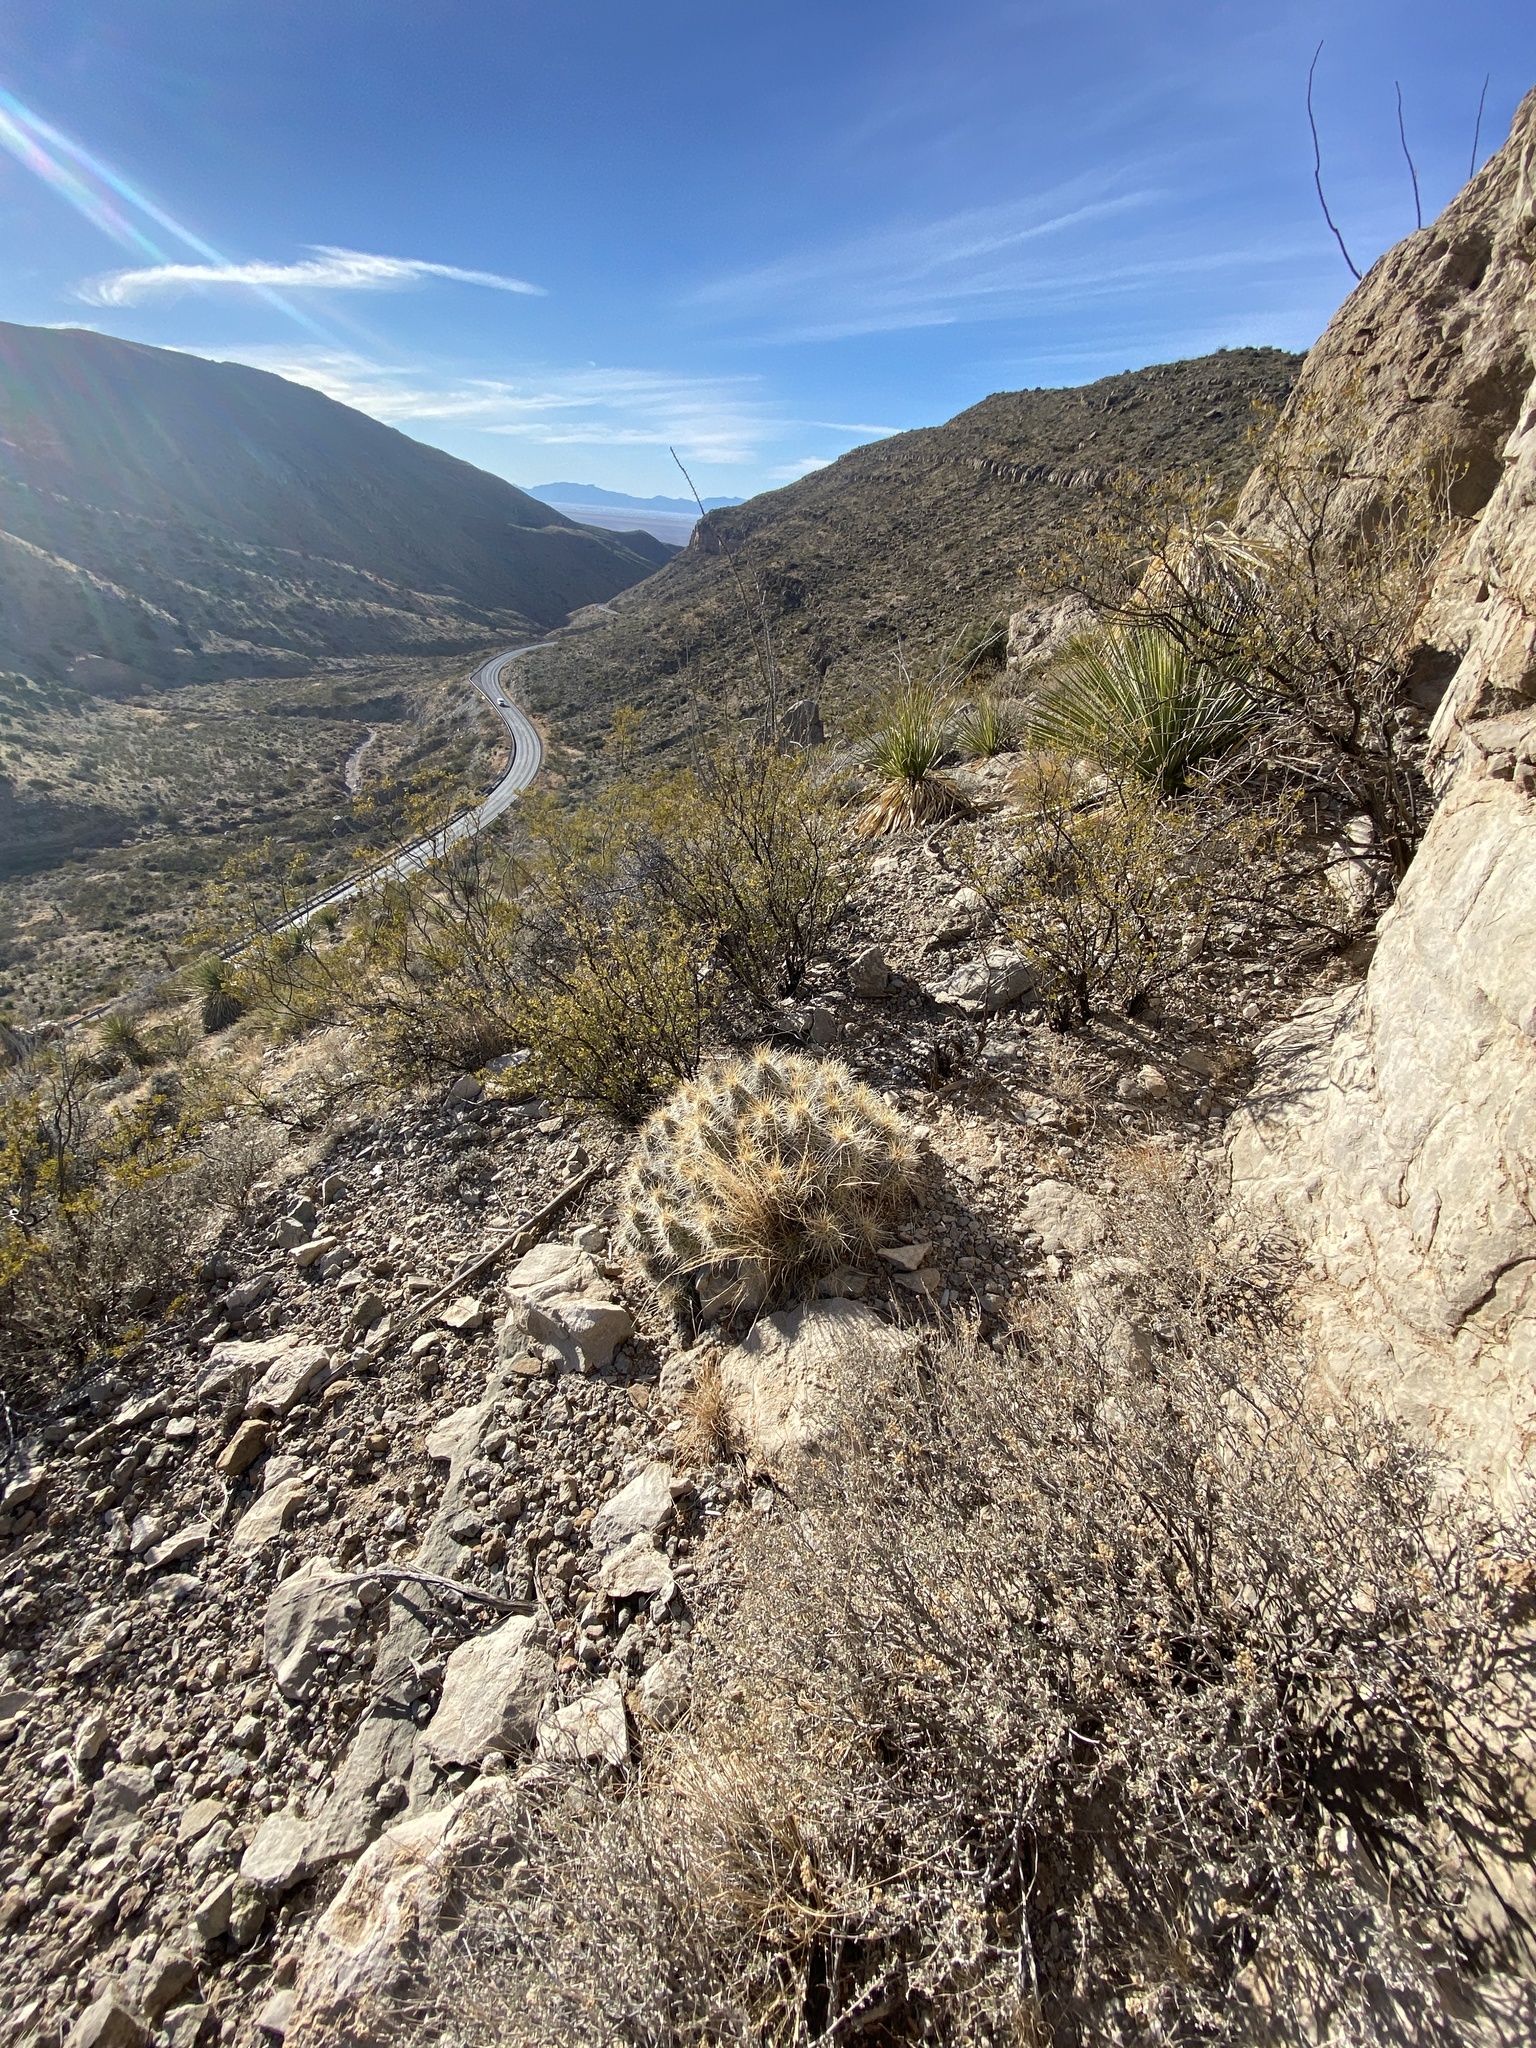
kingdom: Plantae
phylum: Tracheophyta
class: Magnoliopsida
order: Caryophyllales
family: Cactaceae
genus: Echinocereus
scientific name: Echinocereus stramineus
